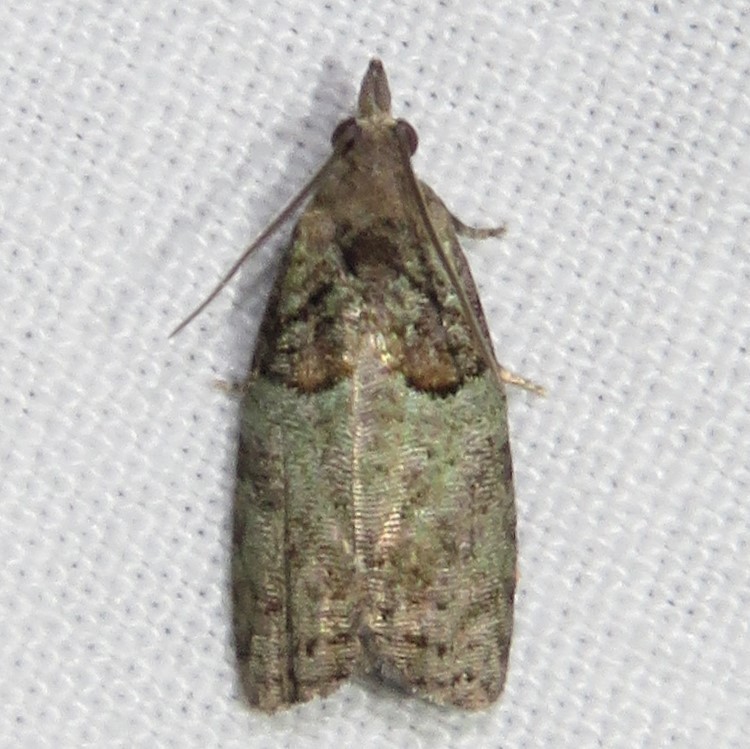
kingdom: Animalia
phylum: Arthropoda
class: Insecta
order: Lepidoptera
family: Tortricidae
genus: Epinotia
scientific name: Epinotia medioviridana
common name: Raspberry leaf-roller moth
